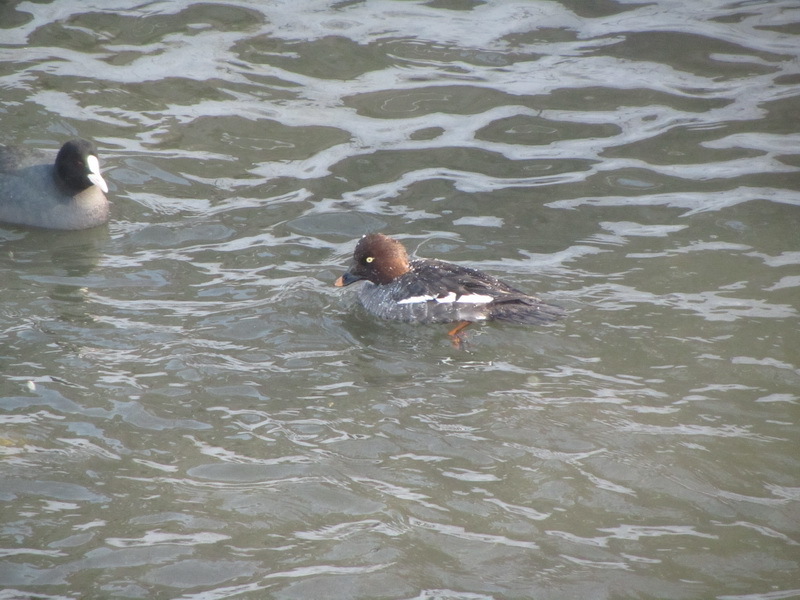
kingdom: Animalia
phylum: Chordata
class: Aves
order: Anseriformes
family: Anatidae
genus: Bucephala
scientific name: Bucephala clangula
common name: Common goldeneye
